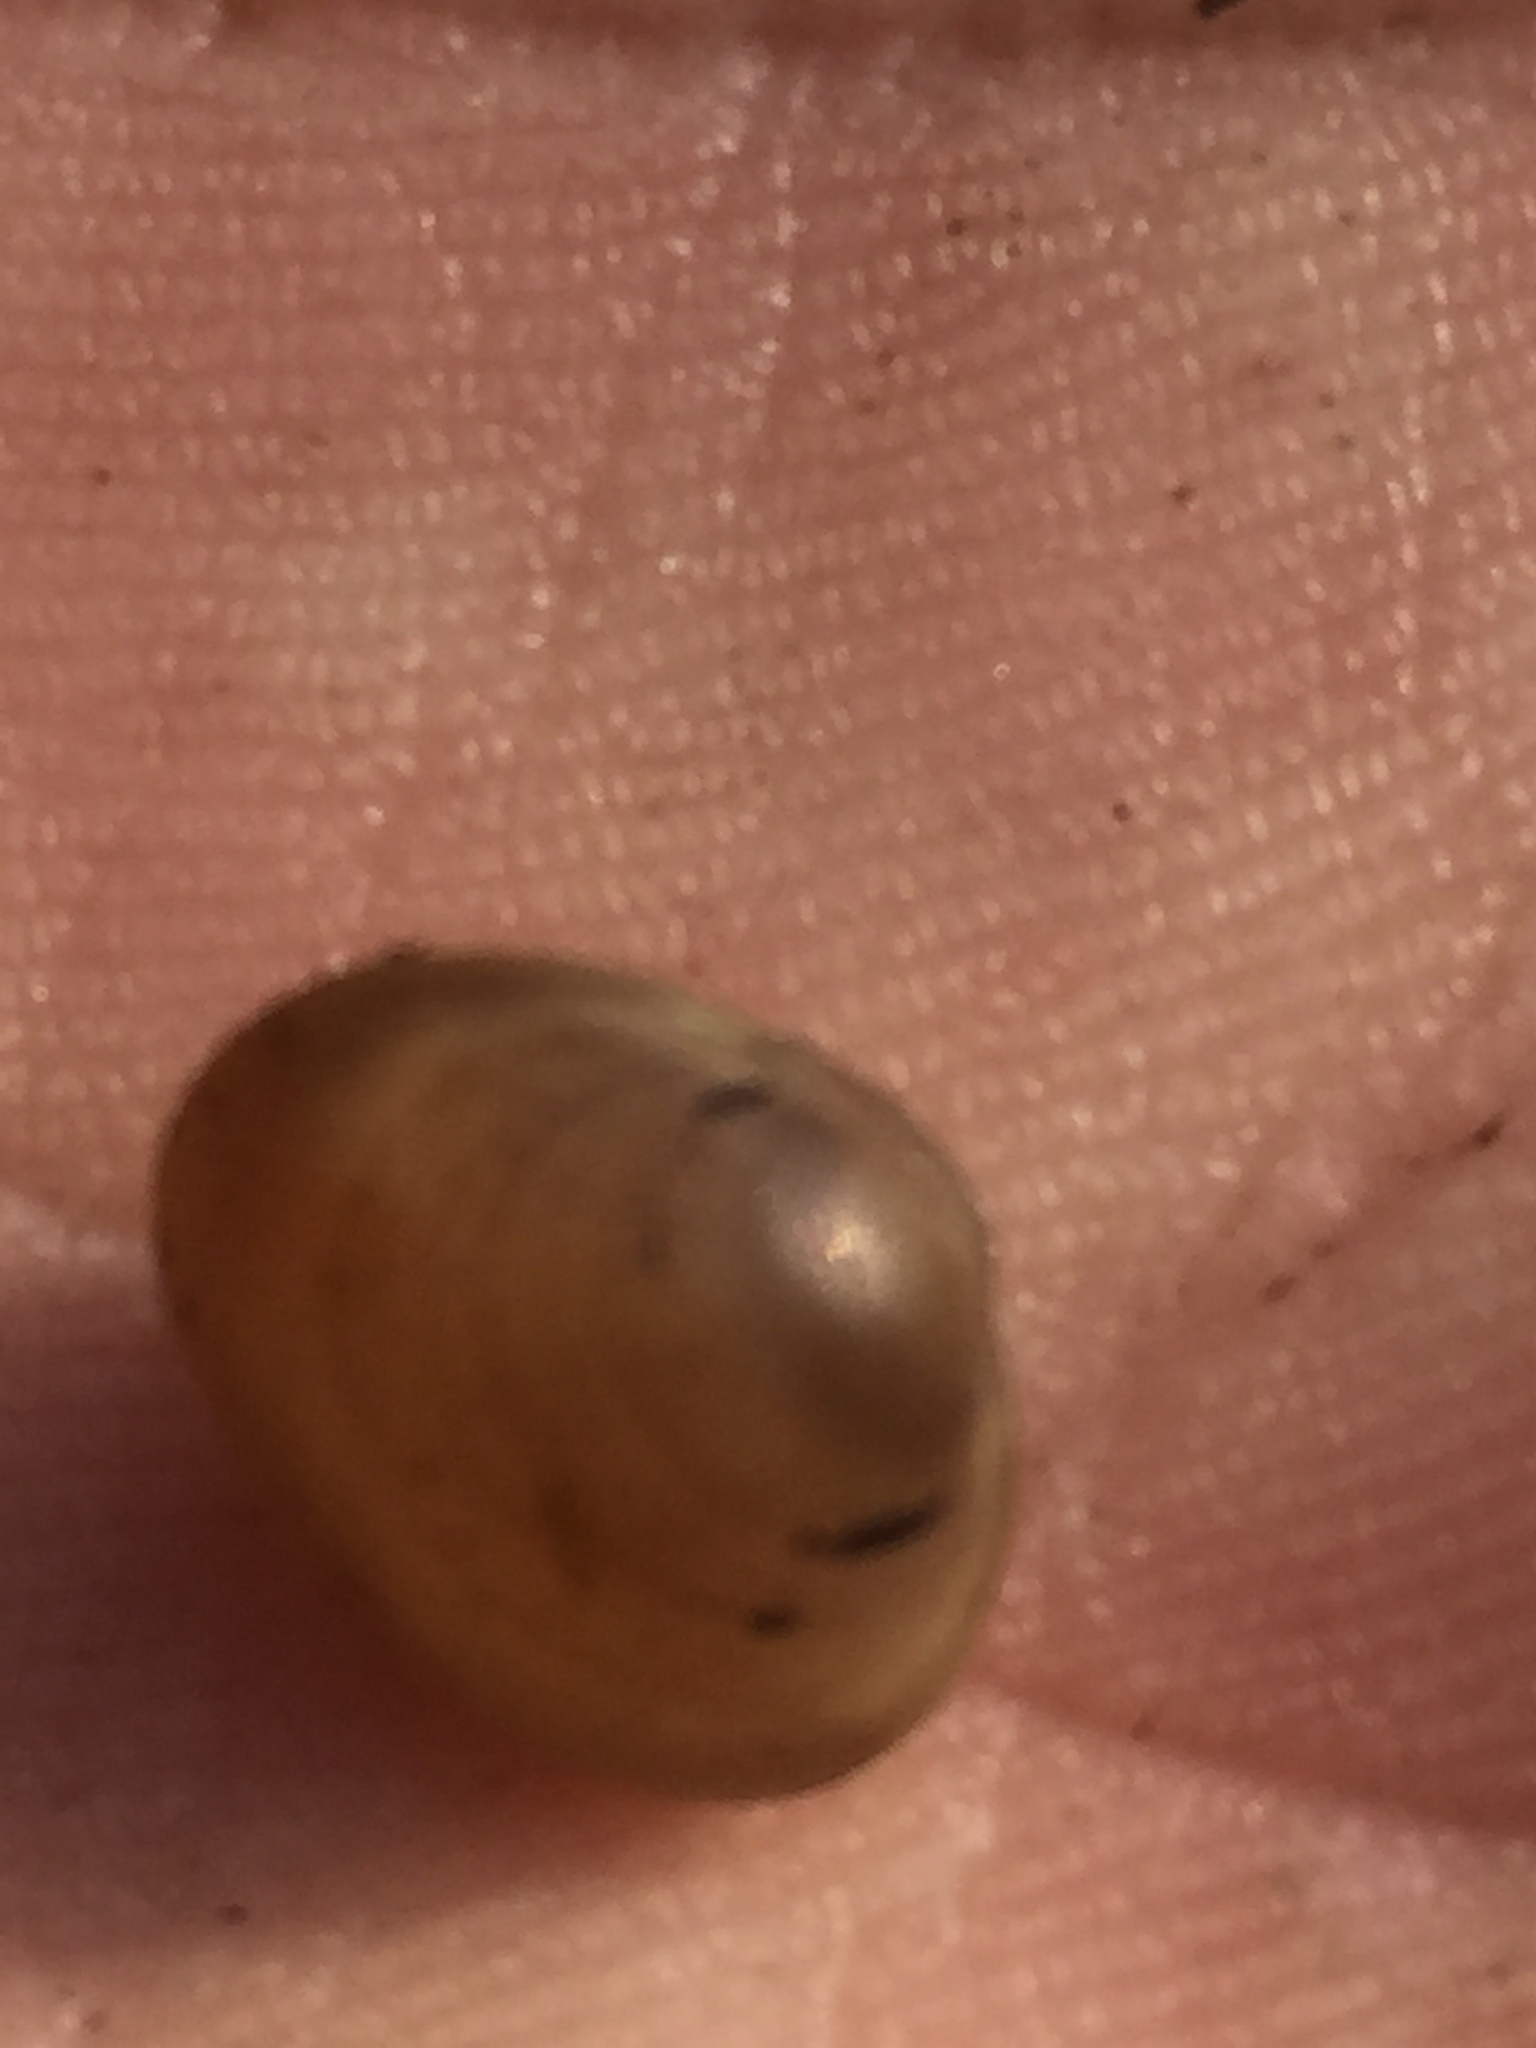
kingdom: Animalia
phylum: Mollusca
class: Bivalvia
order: Sphaeriida
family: Sphaeriidae
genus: Sphaerium
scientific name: Sphaerium corneum
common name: Horny orb mussel
